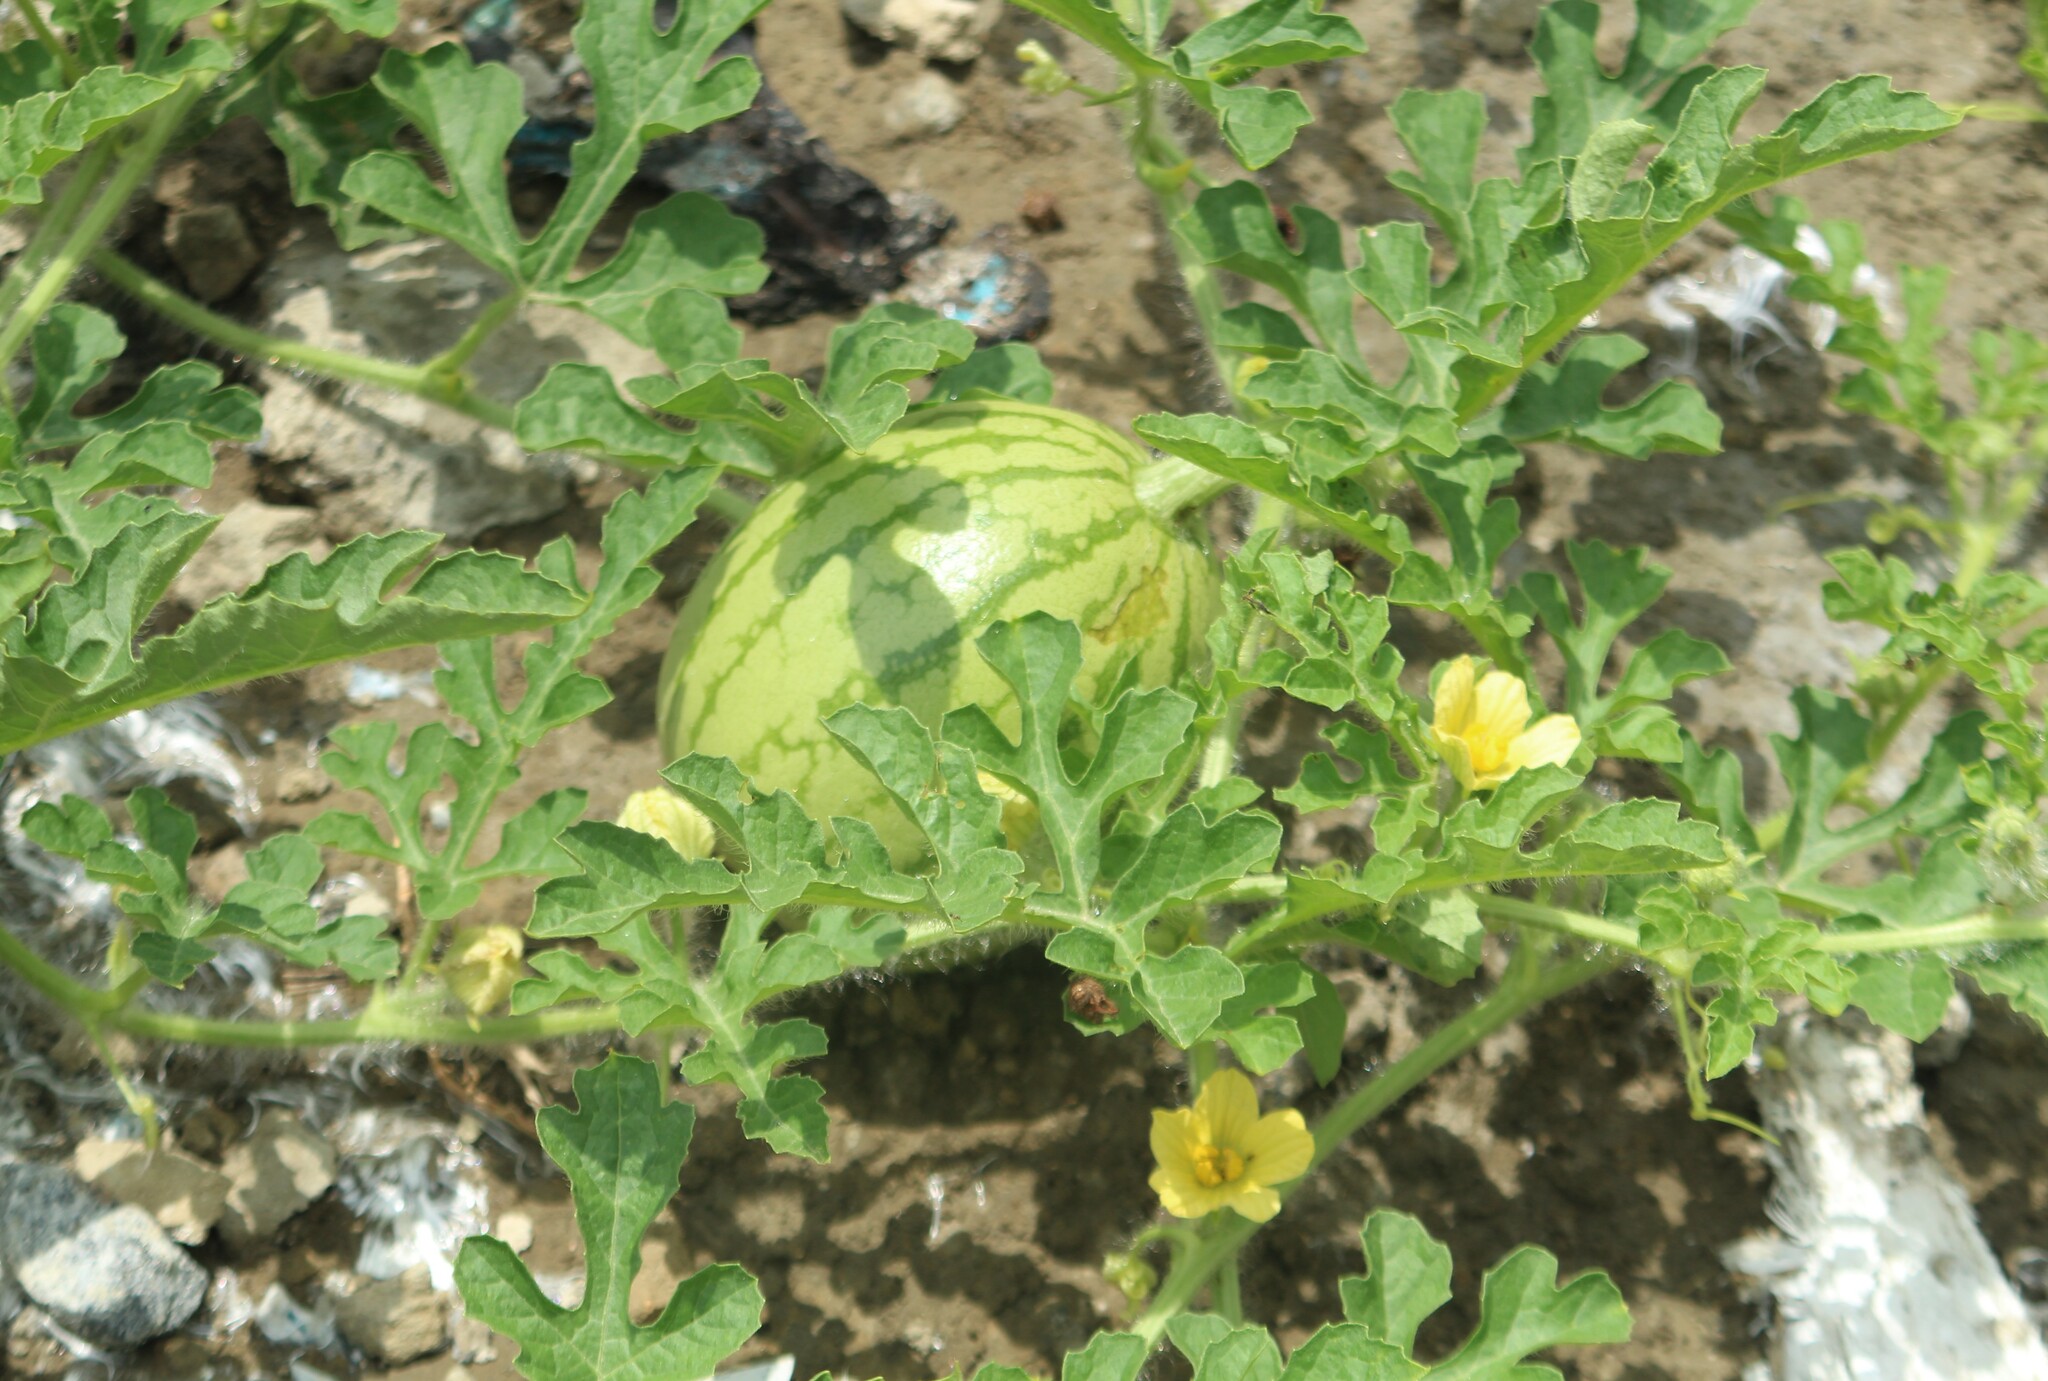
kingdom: Plantae
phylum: Tracheophyta
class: Magnoliopsida
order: Cucurbitales
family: Cucurbitaceae
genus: Citrullus
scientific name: Citrullus lanatus
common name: Watermelon
